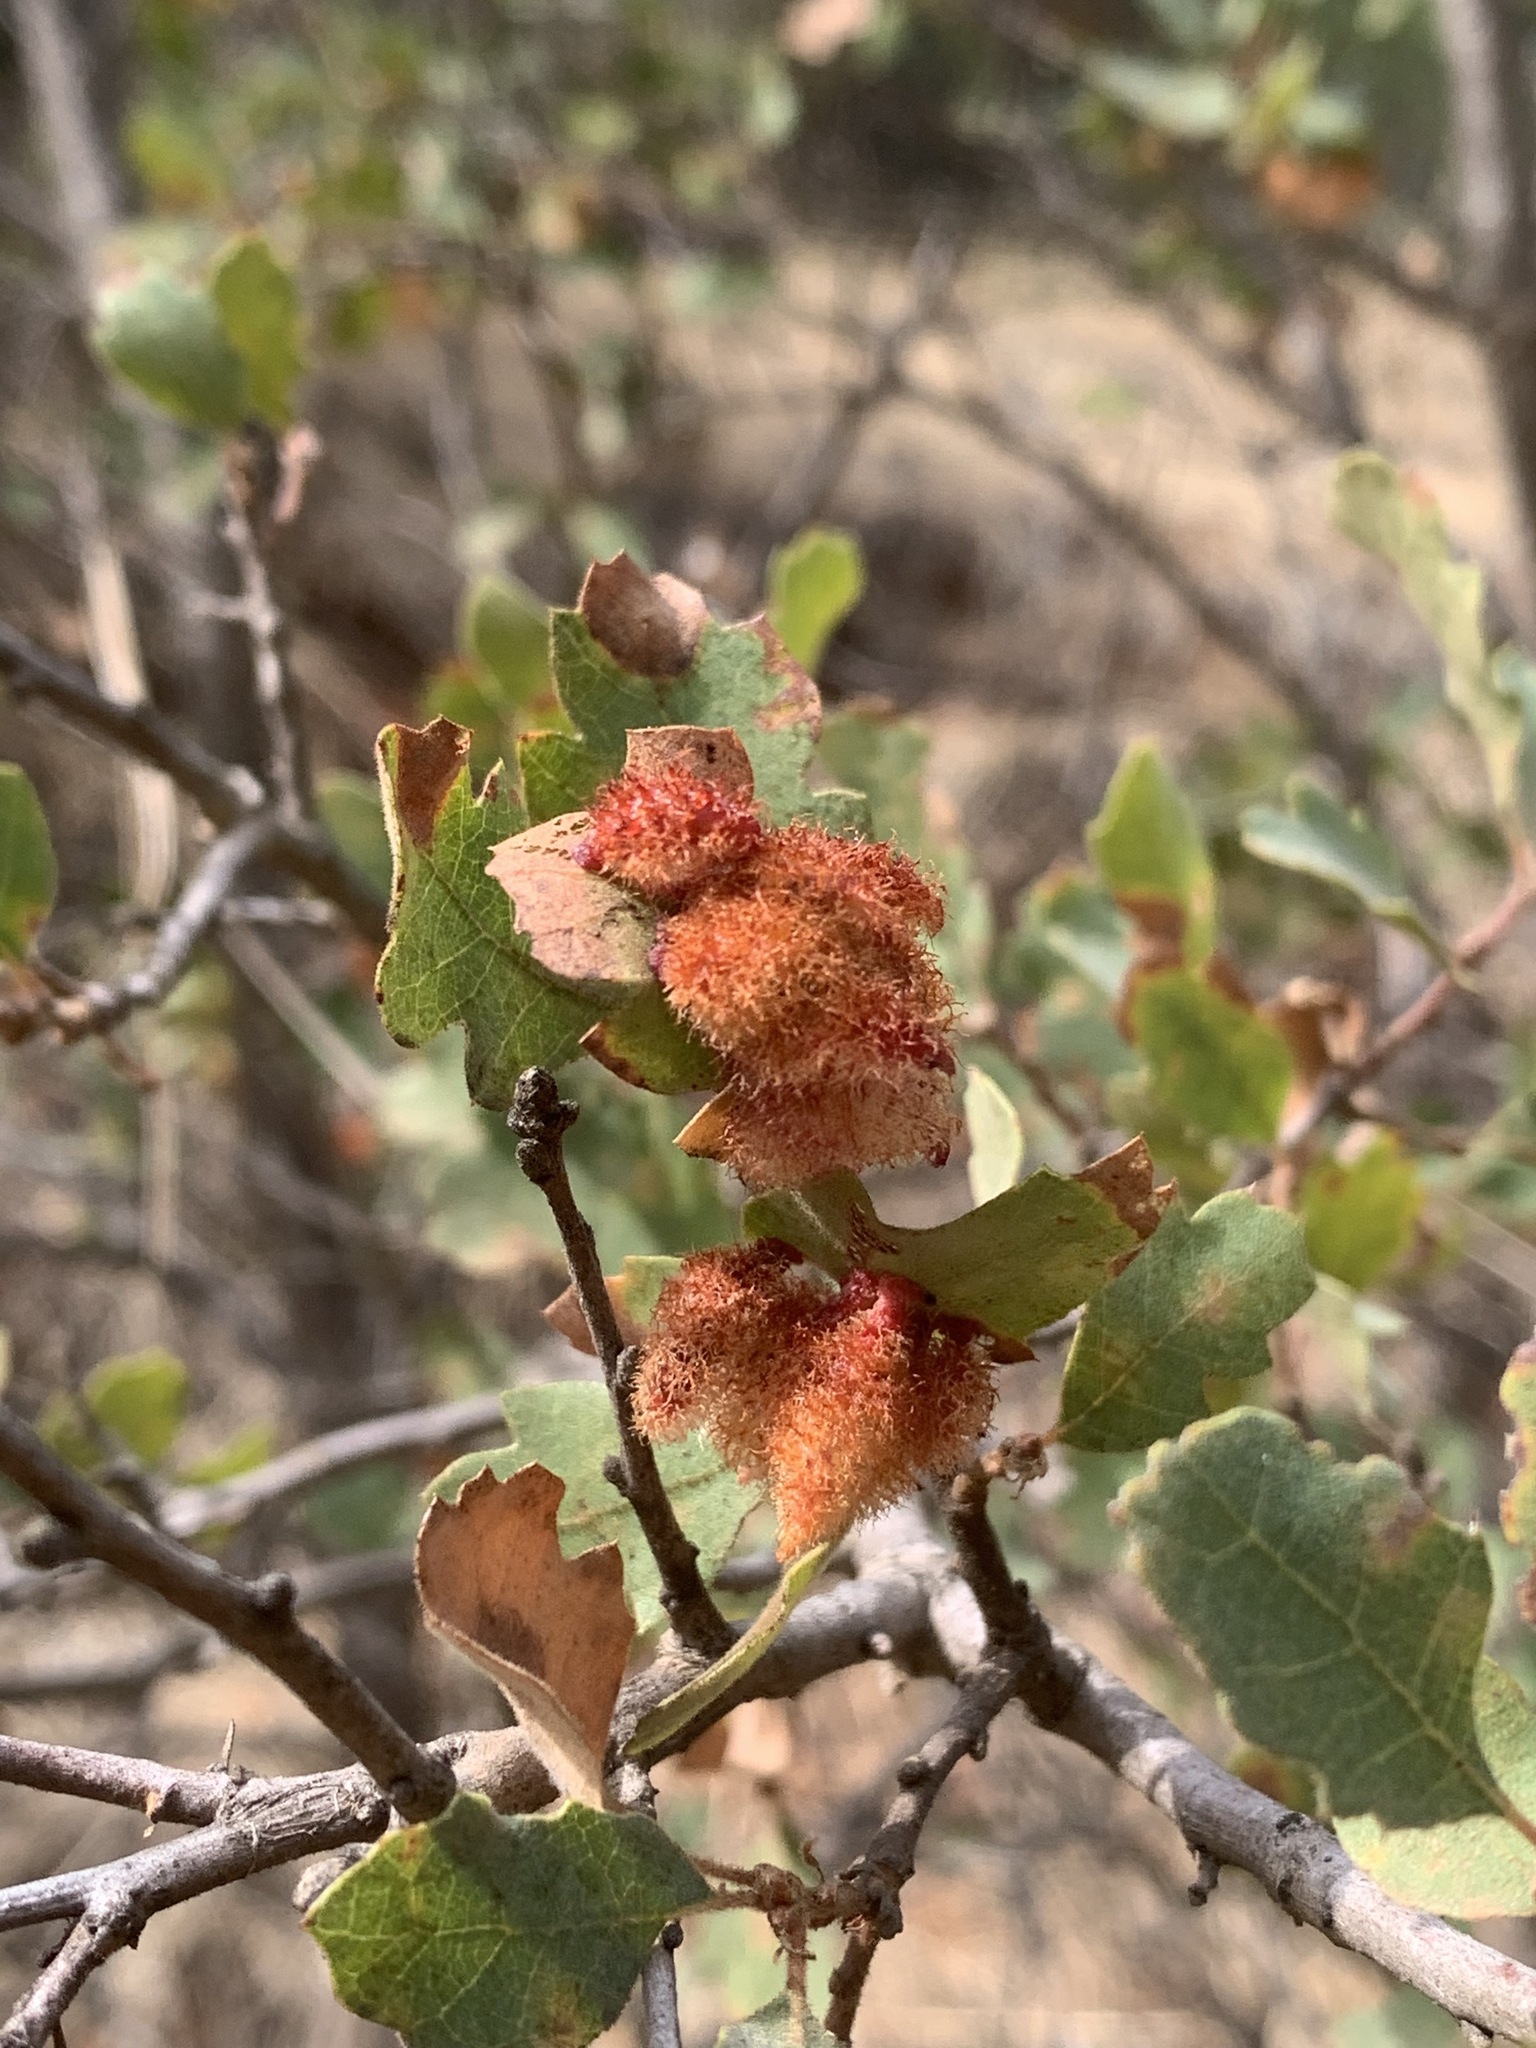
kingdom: Animalia
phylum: Arthropoda
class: Insecta
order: Hymenoptera
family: Cynipidae
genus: Andricus
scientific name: Andricus
